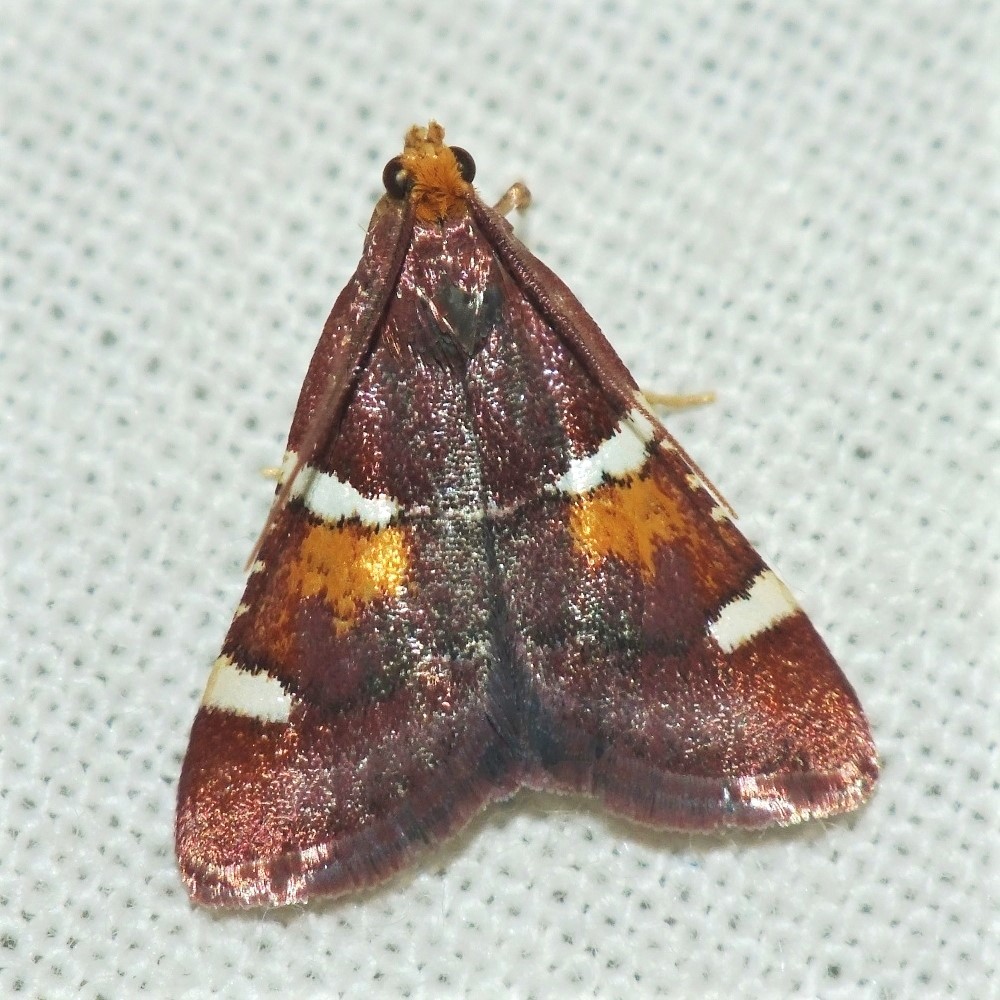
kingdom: Animalia
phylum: Arthropoda
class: Insecta
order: Lepidoptera
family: Pyralidae
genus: Pyralis
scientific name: Pyralis regalis
